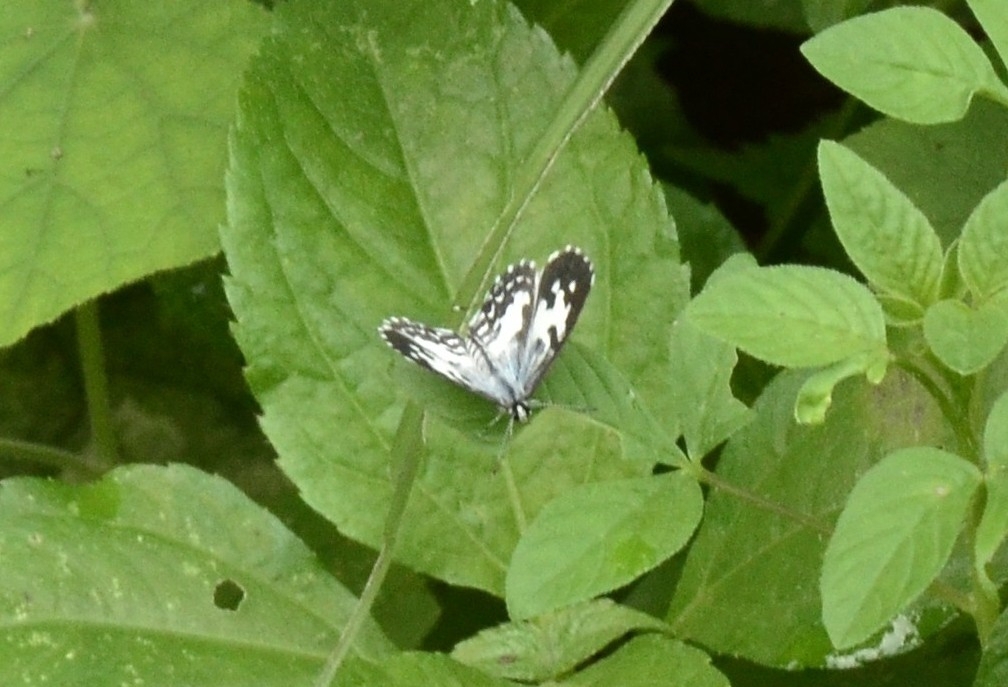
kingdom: Animalia
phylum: Arthropoda
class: Insecta
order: Lepidoptera
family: Lycaenidae
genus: Castalius
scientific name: Castalius rosimon
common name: Common pierrot
